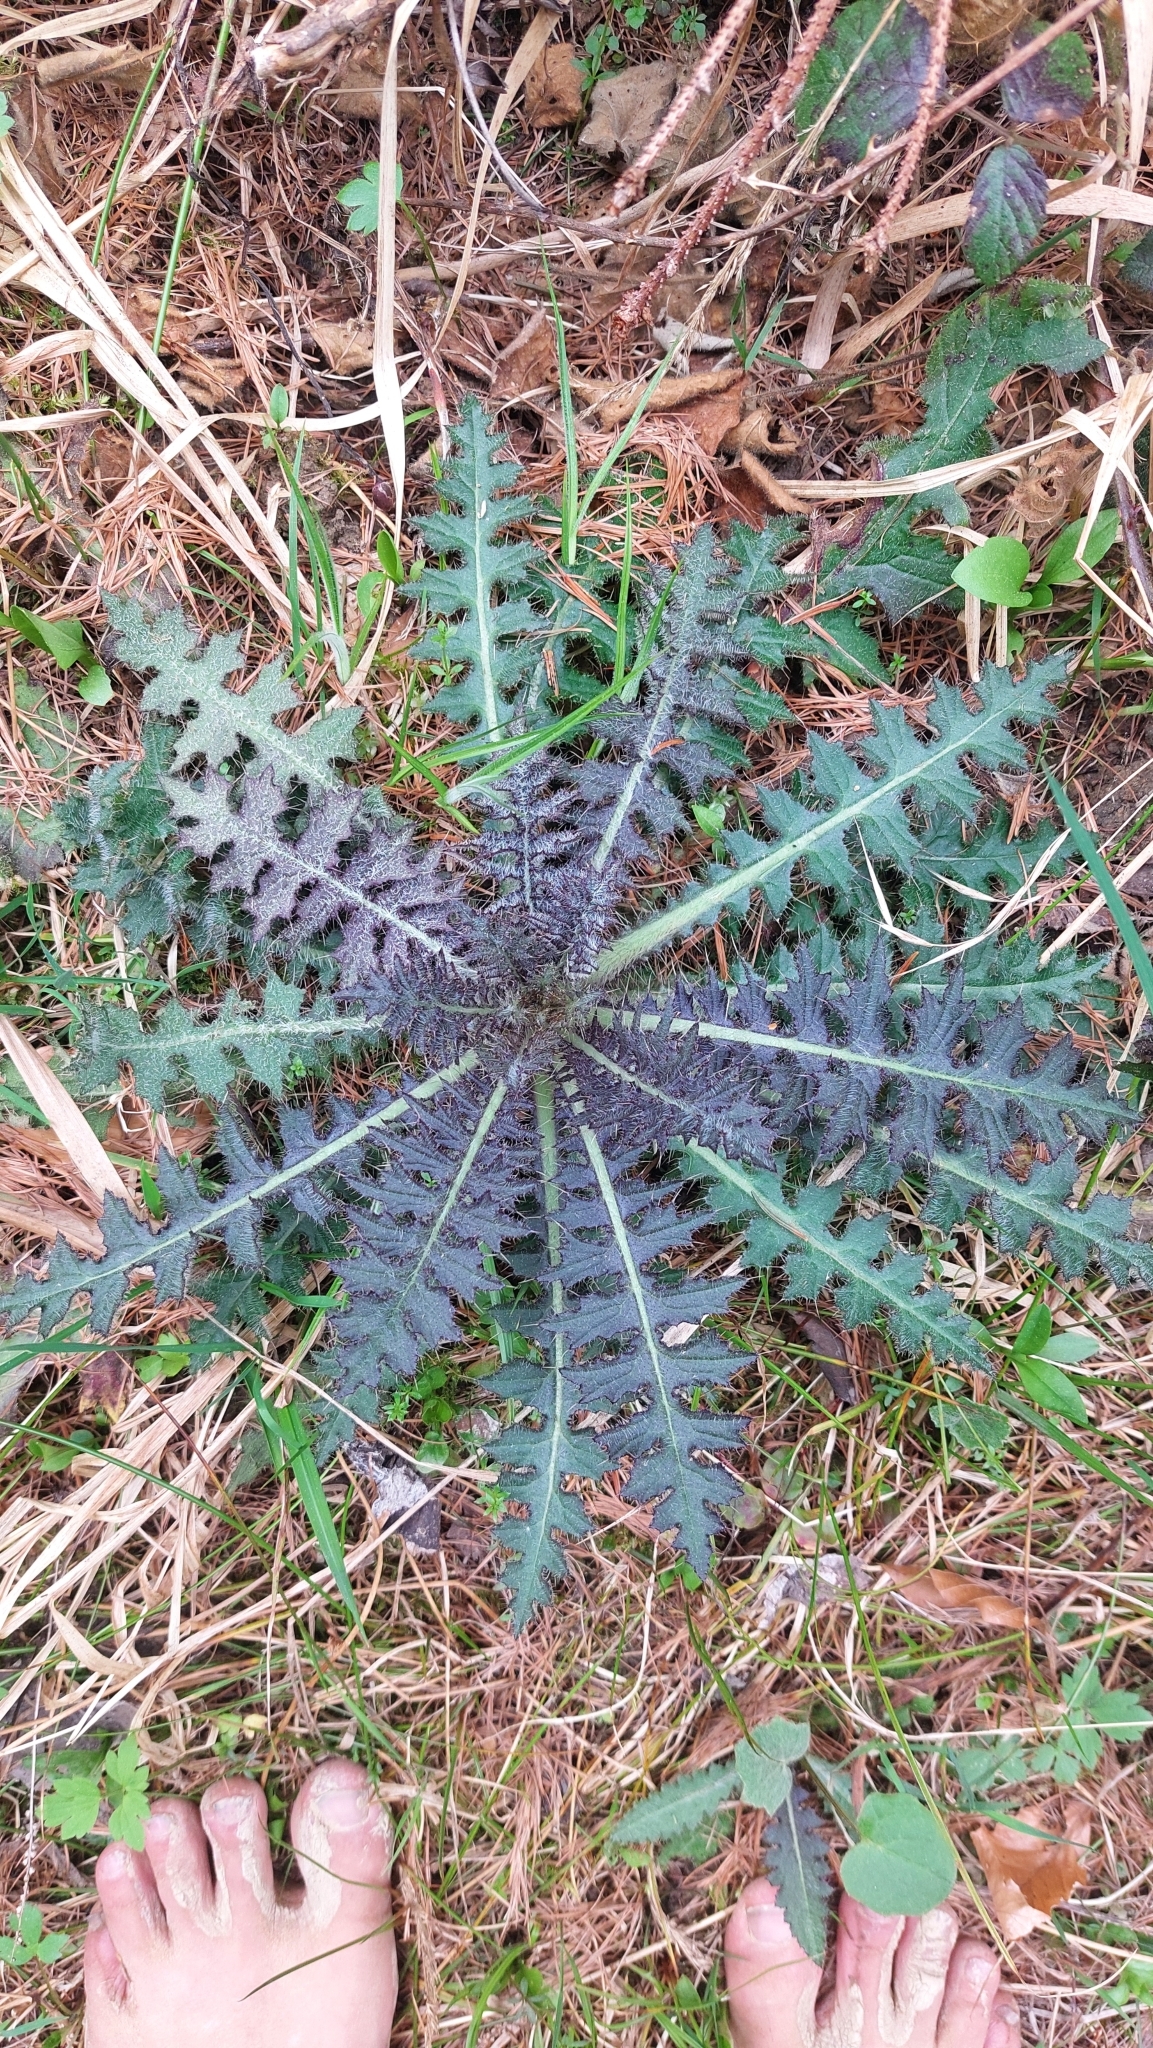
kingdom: Plantae
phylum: Tracheophyta
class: Magnoliopsida
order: Asterales
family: Asteraceae
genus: Cirsium
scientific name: Cirsium palustre
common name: Marsh thistle
